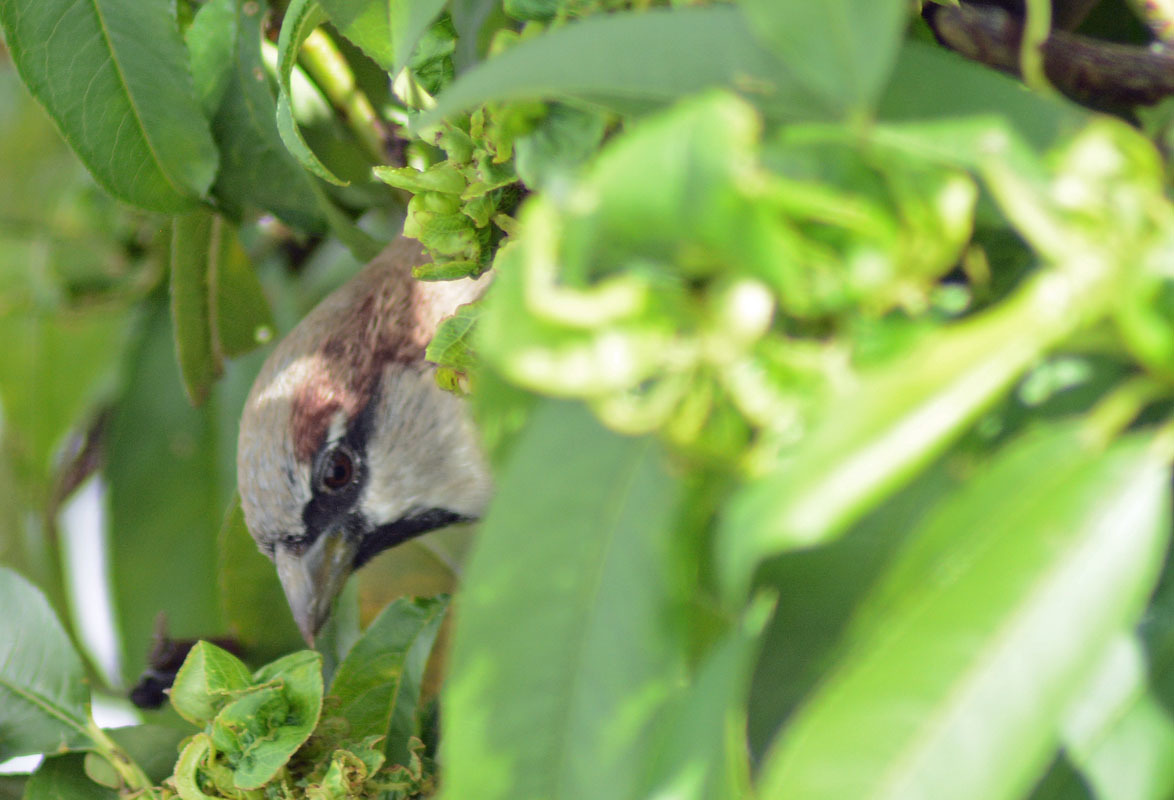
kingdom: Animalia
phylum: Chordata
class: Aves
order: Passeriformes
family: Passeridae
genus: Passer
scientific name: Passer domesticus
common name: House sparrow
